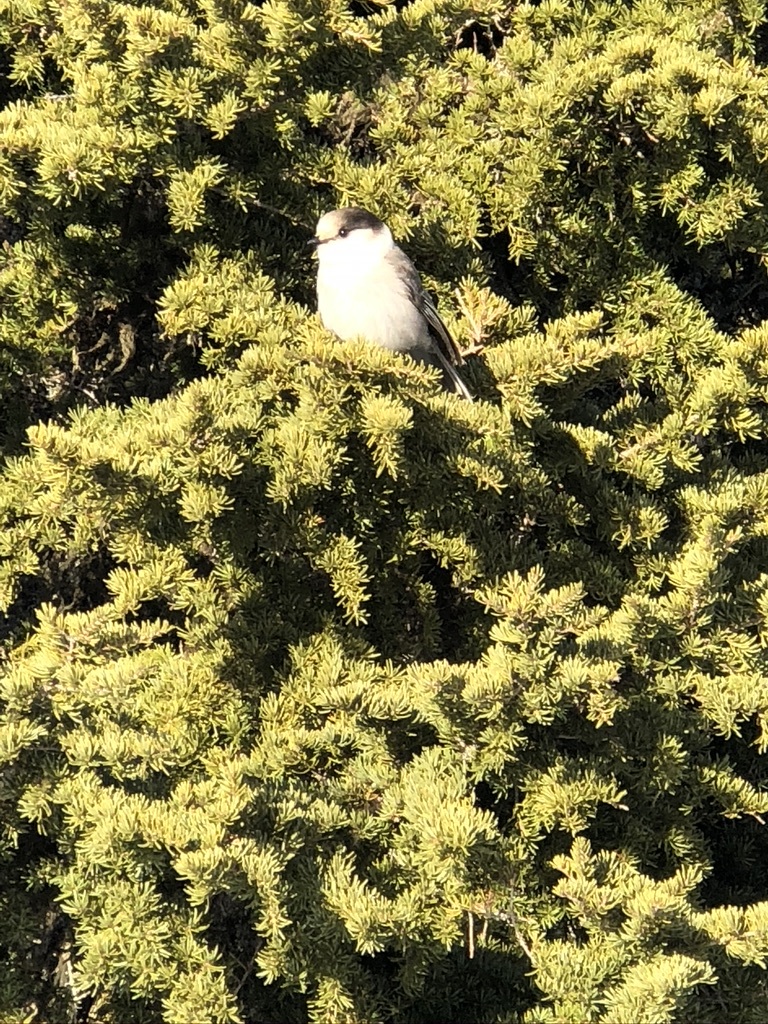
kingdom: Animalia
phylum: Chordata
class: Aves
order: Passeriformes
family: Corvidae
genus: Perisoreus
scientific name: Perisoreus canadensis
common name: Gray jay
